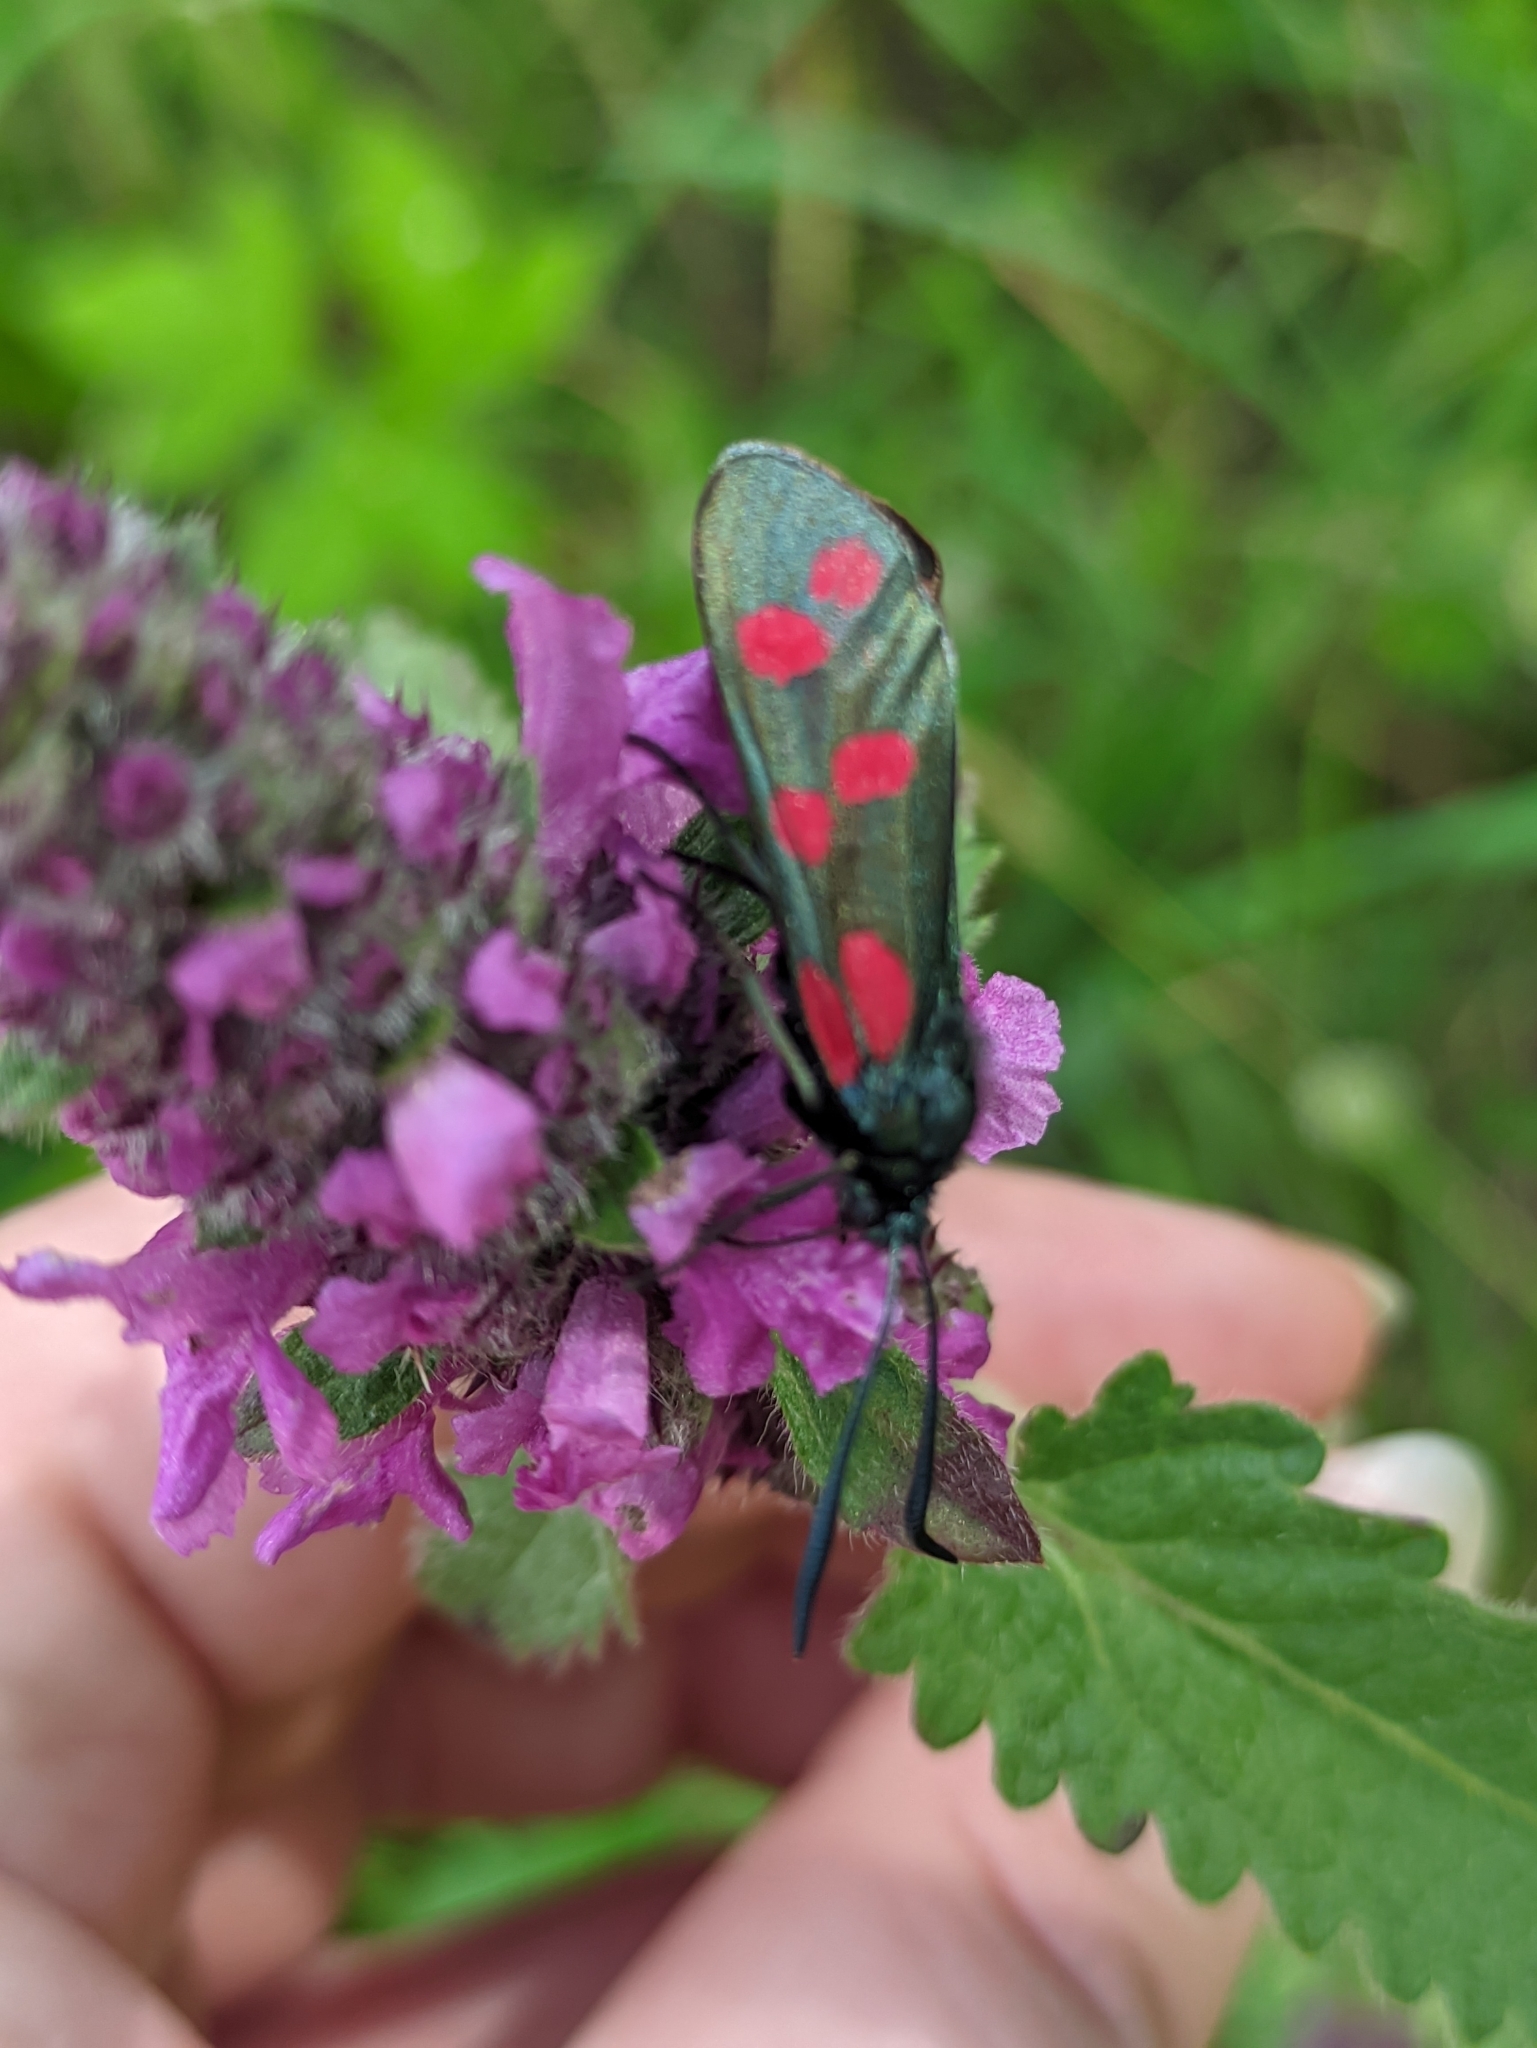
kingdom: Animalia
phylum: Arthropoda
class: Insecta
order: Lepidoptera
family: Zygaenidae
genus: Zygaena
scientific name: Zygaena filipendulae
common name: Six-spot burnet
